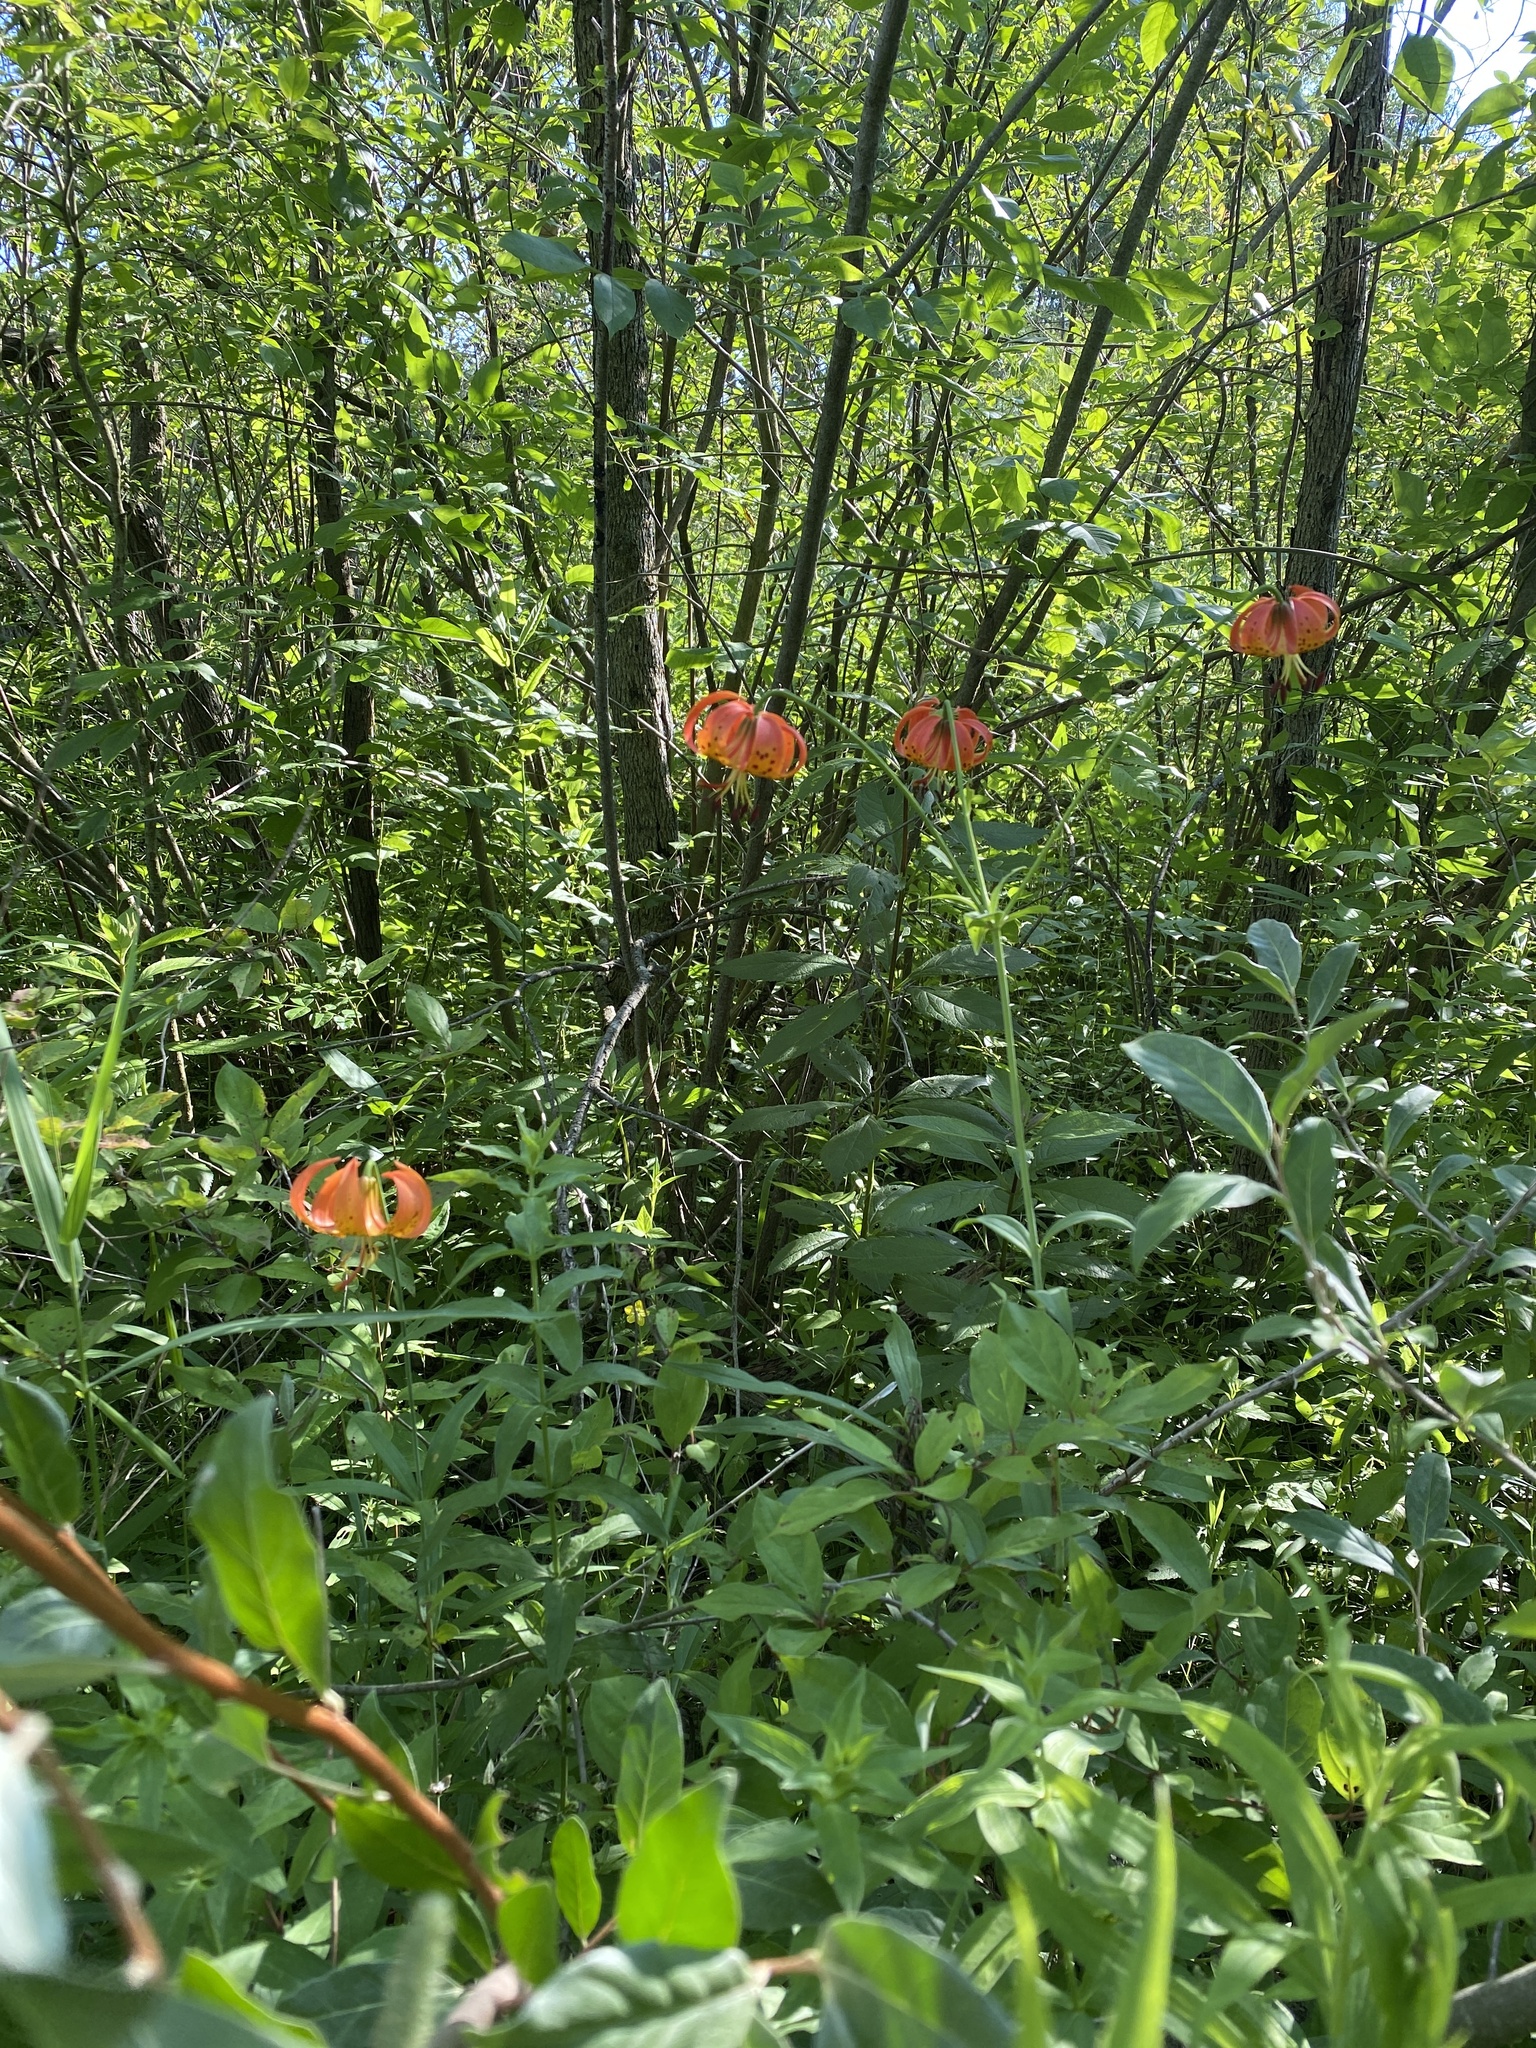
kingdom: Plantae
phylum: Tracheophyta
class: Liliopsida
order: Liliales
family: Liliaceae
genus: Lilium
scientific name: Lilium michiganense
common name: Michigan lily
